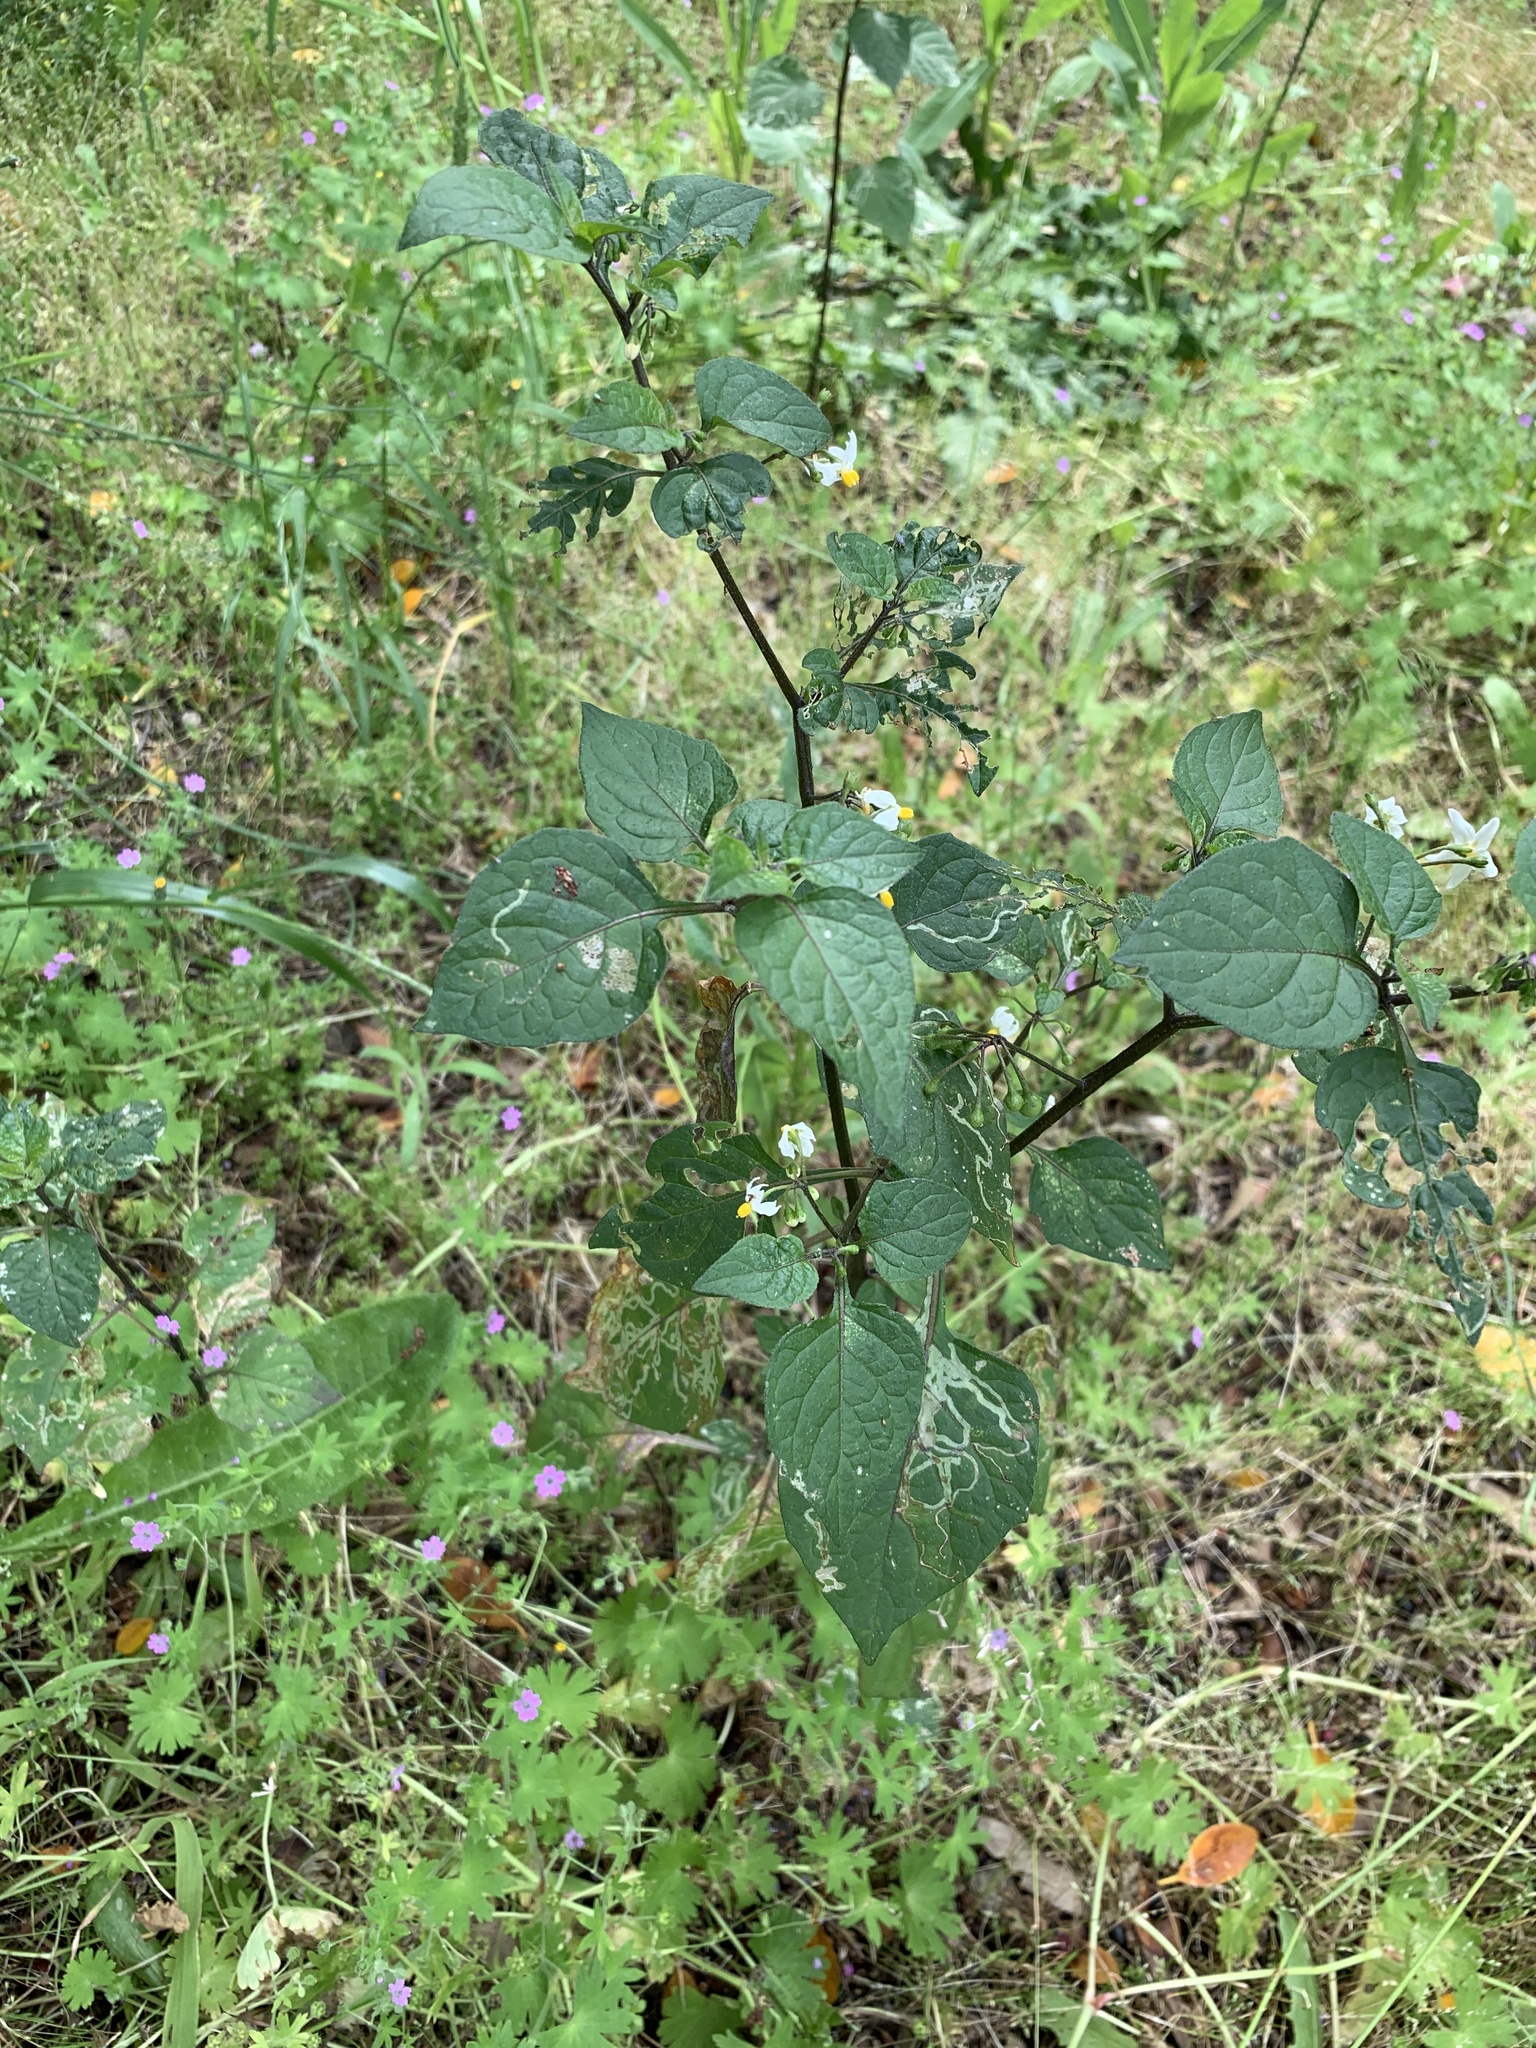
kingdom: Plantae
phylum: Tracheophyta
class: Magnoliopsida
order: Solanales
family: Solanaceae
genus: Solanum
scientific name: Solanum nigrum
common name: Black nightshade
